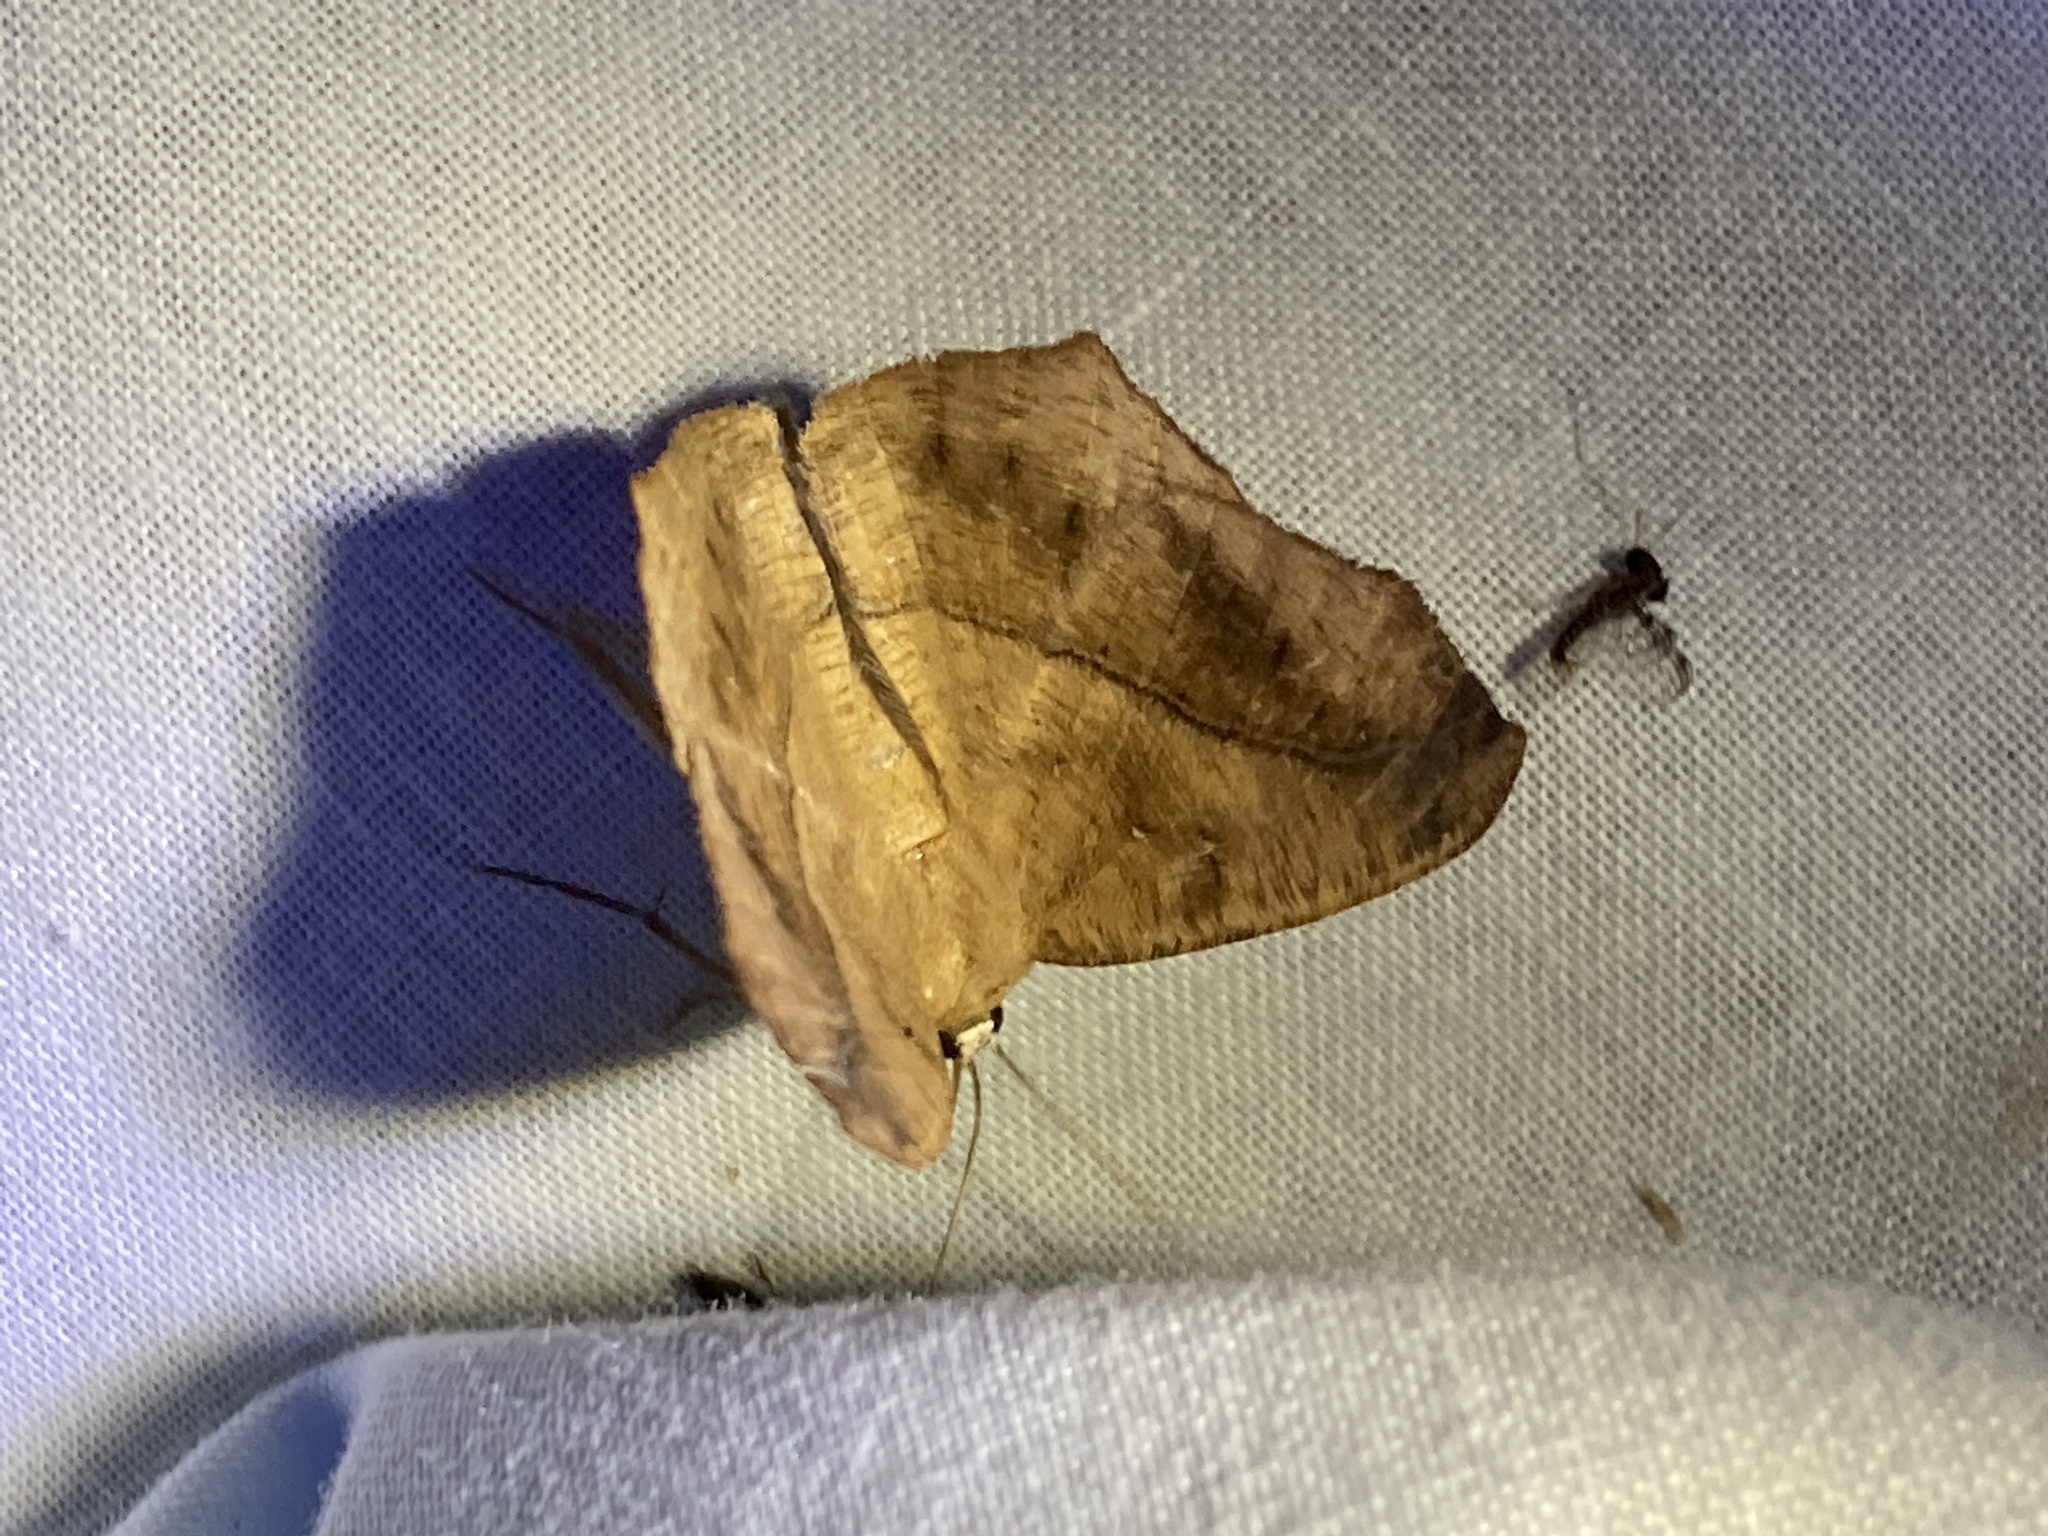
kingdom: Animalia
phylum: Arthropoda
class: Insecta
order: Lepidoptera
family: Geometridae
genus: Prochoerodes
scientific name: Prochoerodes lineola
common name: Large maple spanworm
